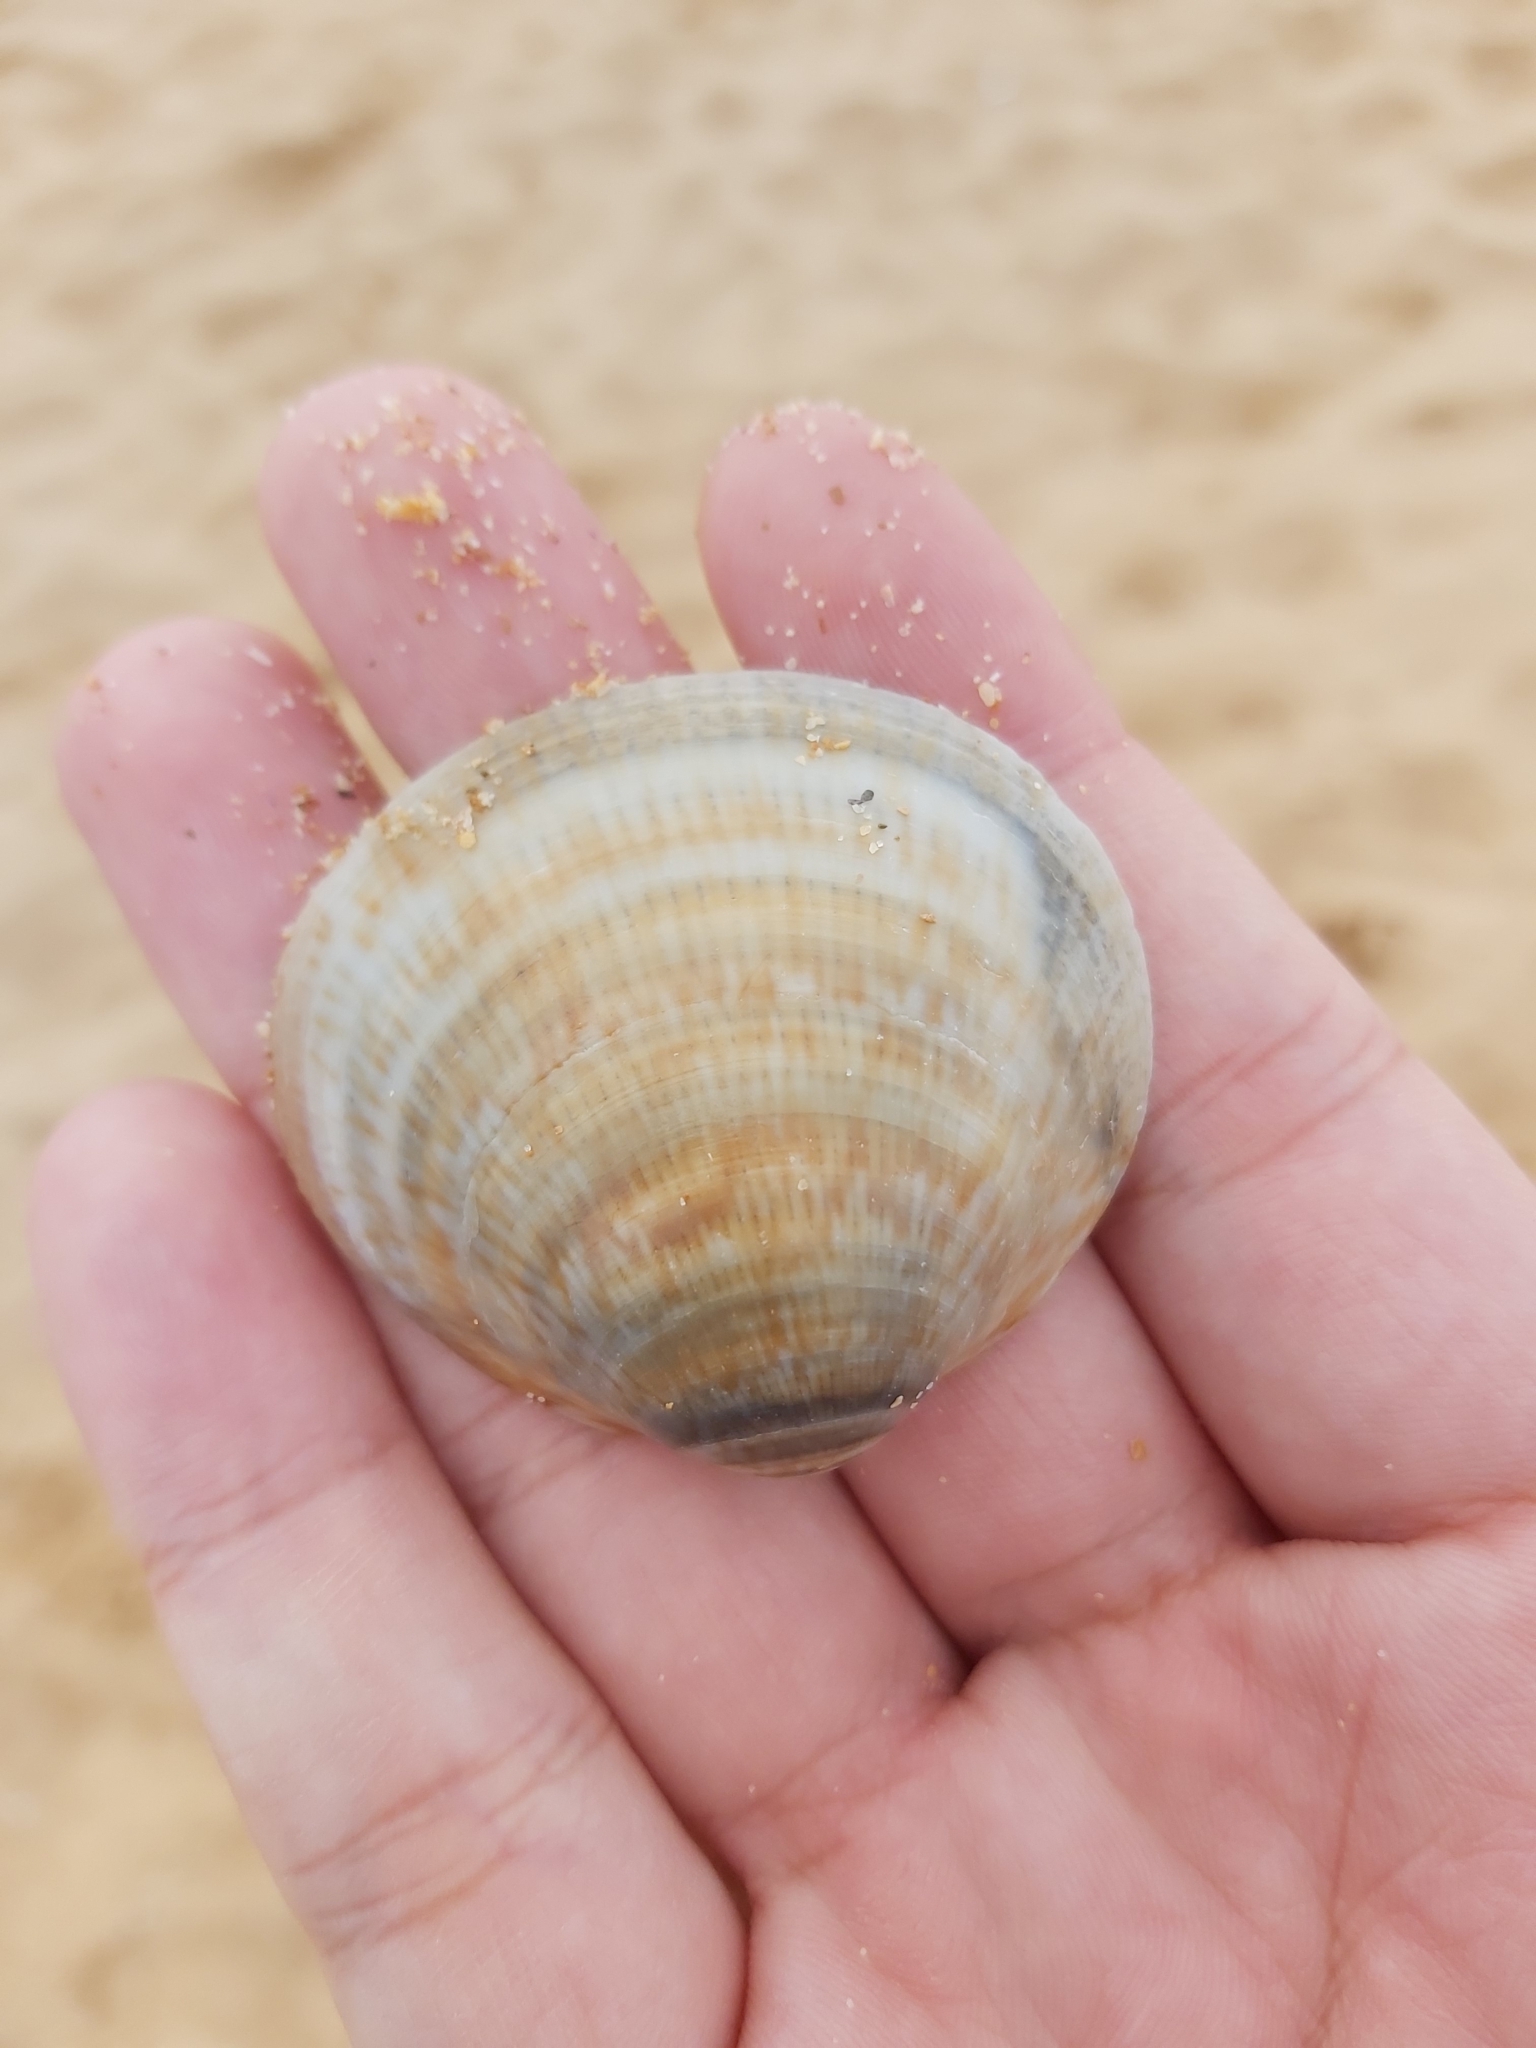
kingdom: Animalia
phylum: Mollusca
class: Bivalvia
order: Arcida
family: Glycymerididae
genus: Glycymeris
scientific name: Glycymeris grayana
